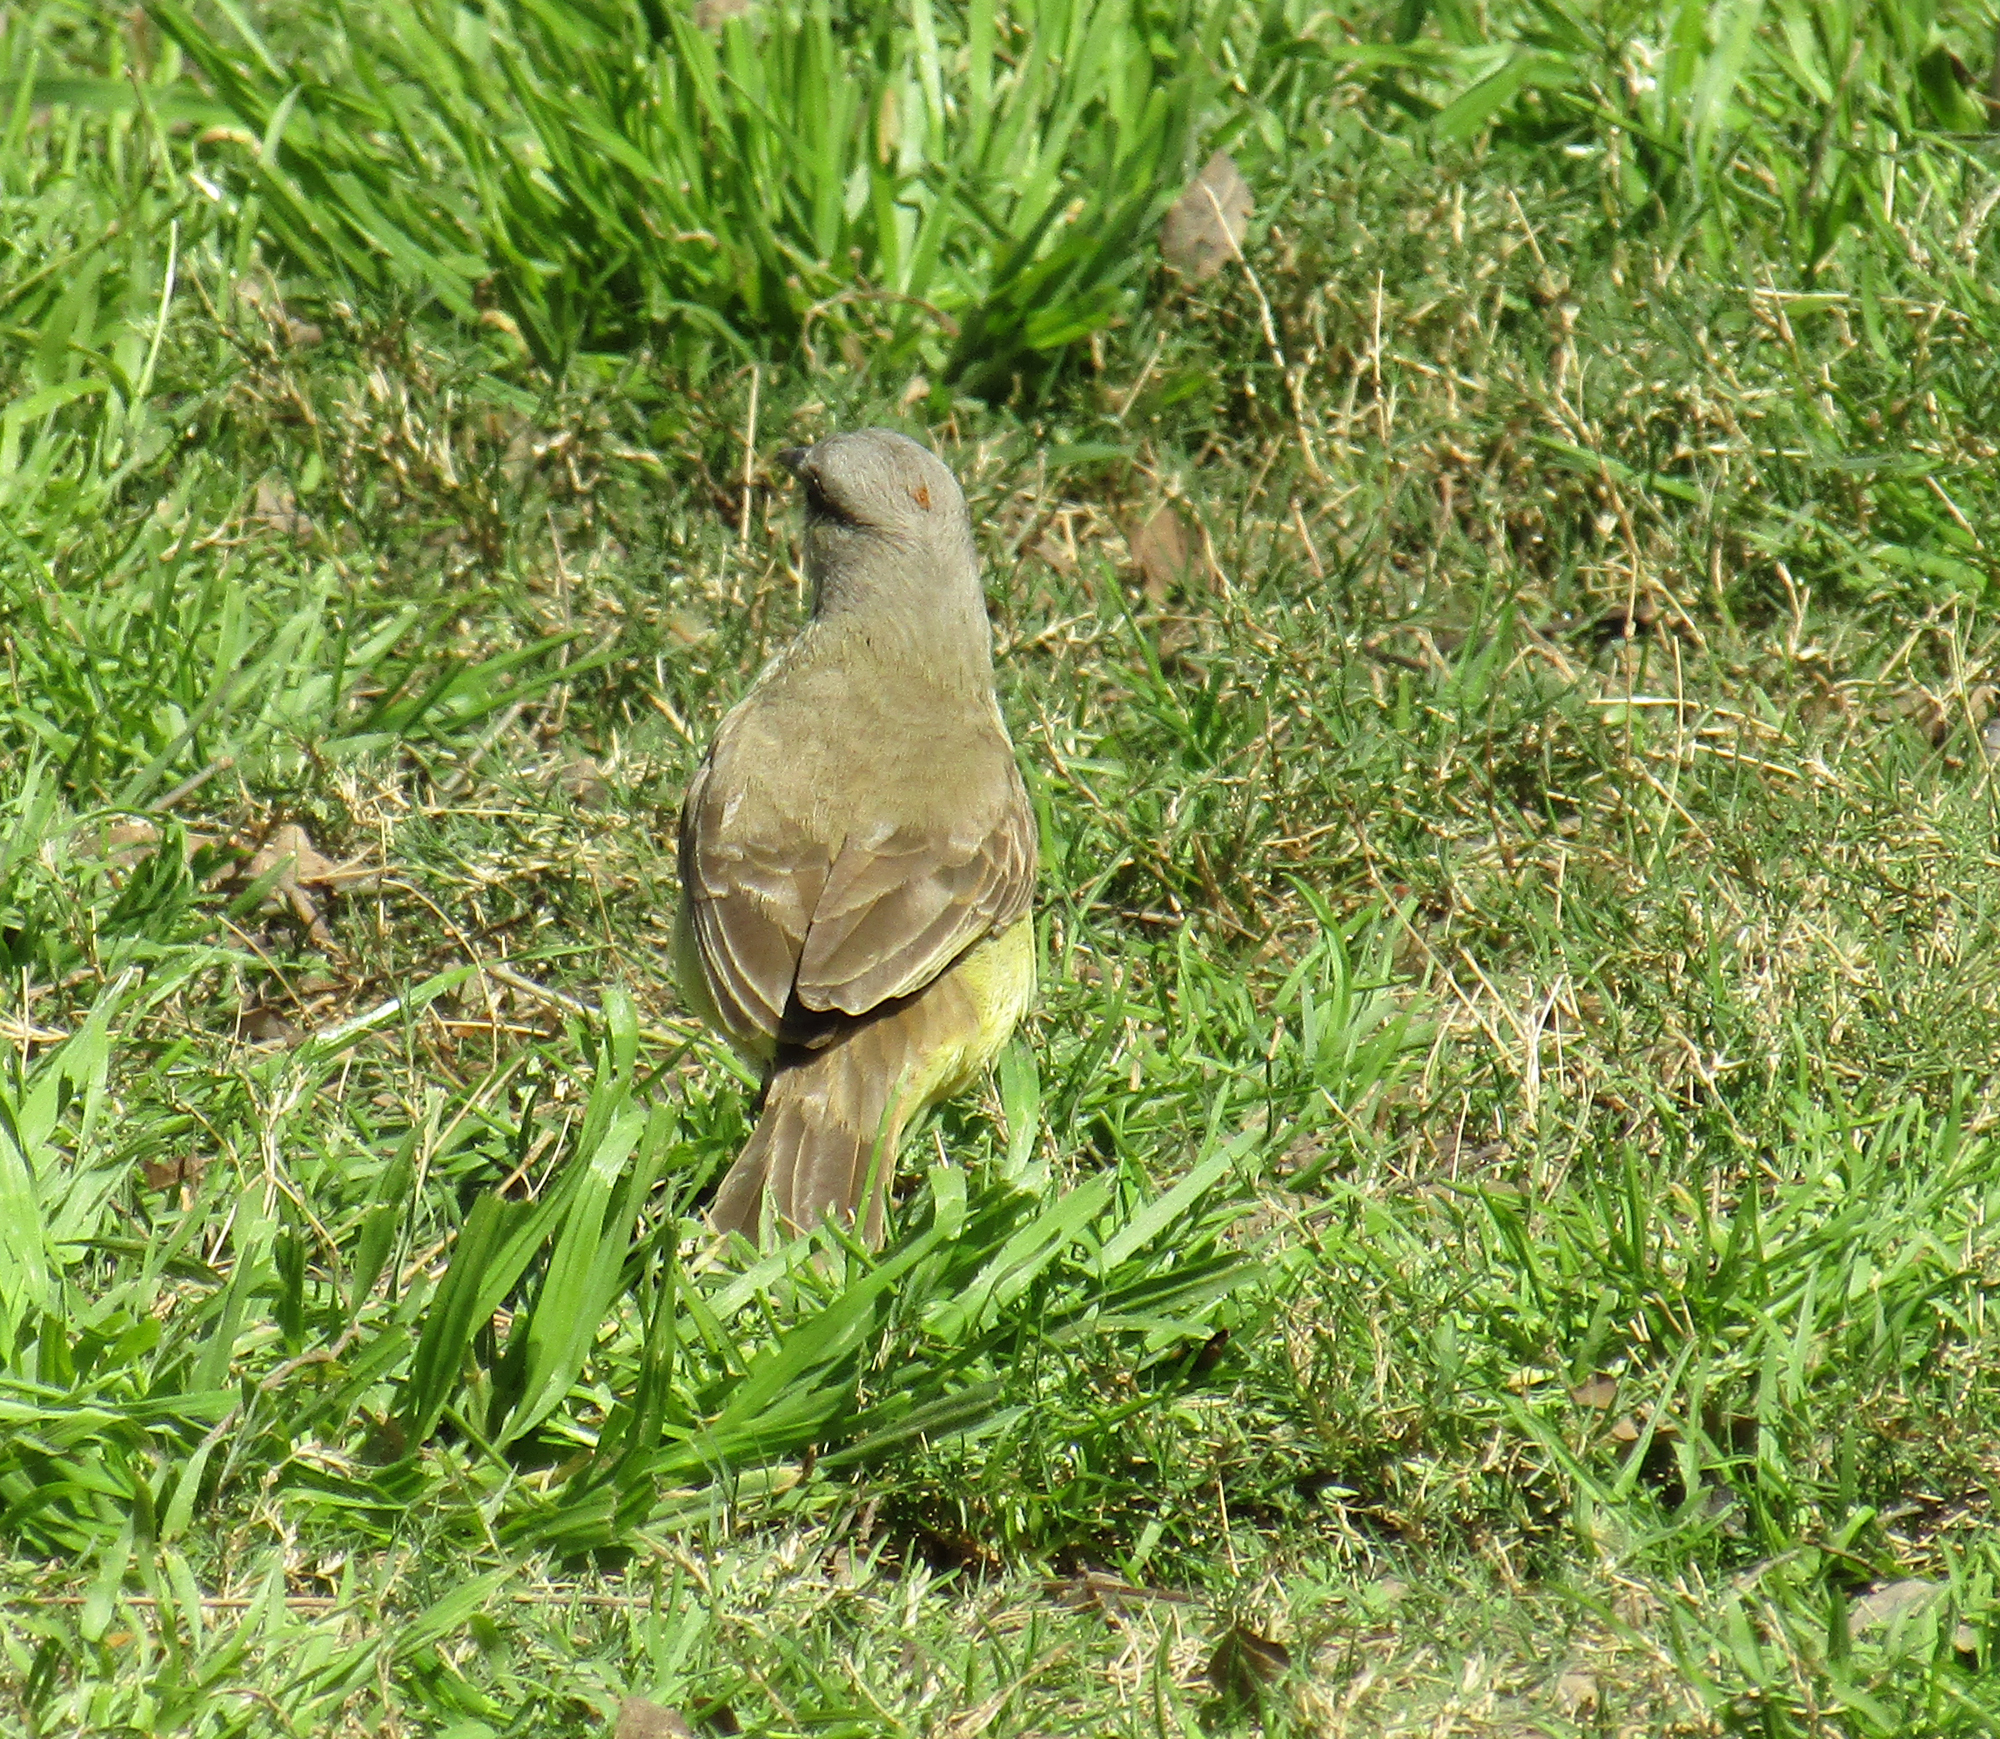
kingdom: Animalia
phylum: Chordata
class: Aves
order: Passeriformes
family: Tyrannidae
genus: Machetornis
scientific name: Machetornis rixosa
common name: Cattle tyrant
